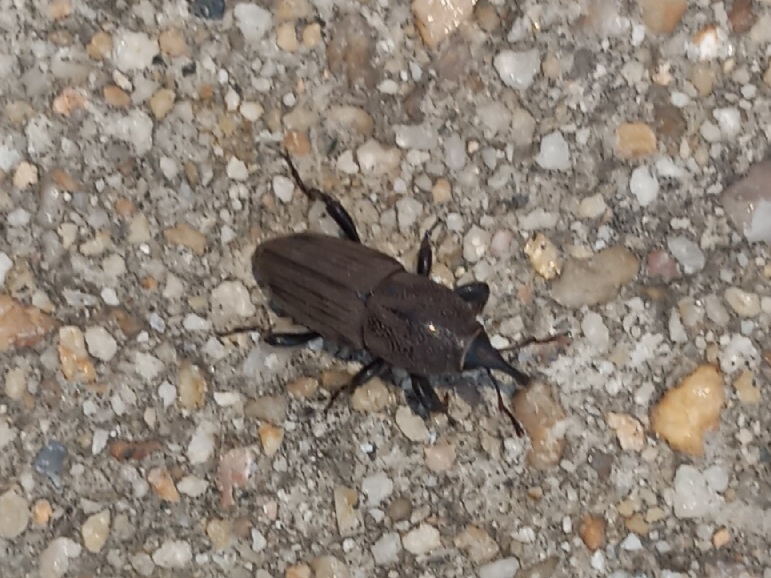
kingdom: Animalia
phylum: Arthropoda
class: Insecta
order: Coleoptera
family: Dryophthoridae
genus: Sphenophorus
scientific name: Sphenophorus interstitialis
